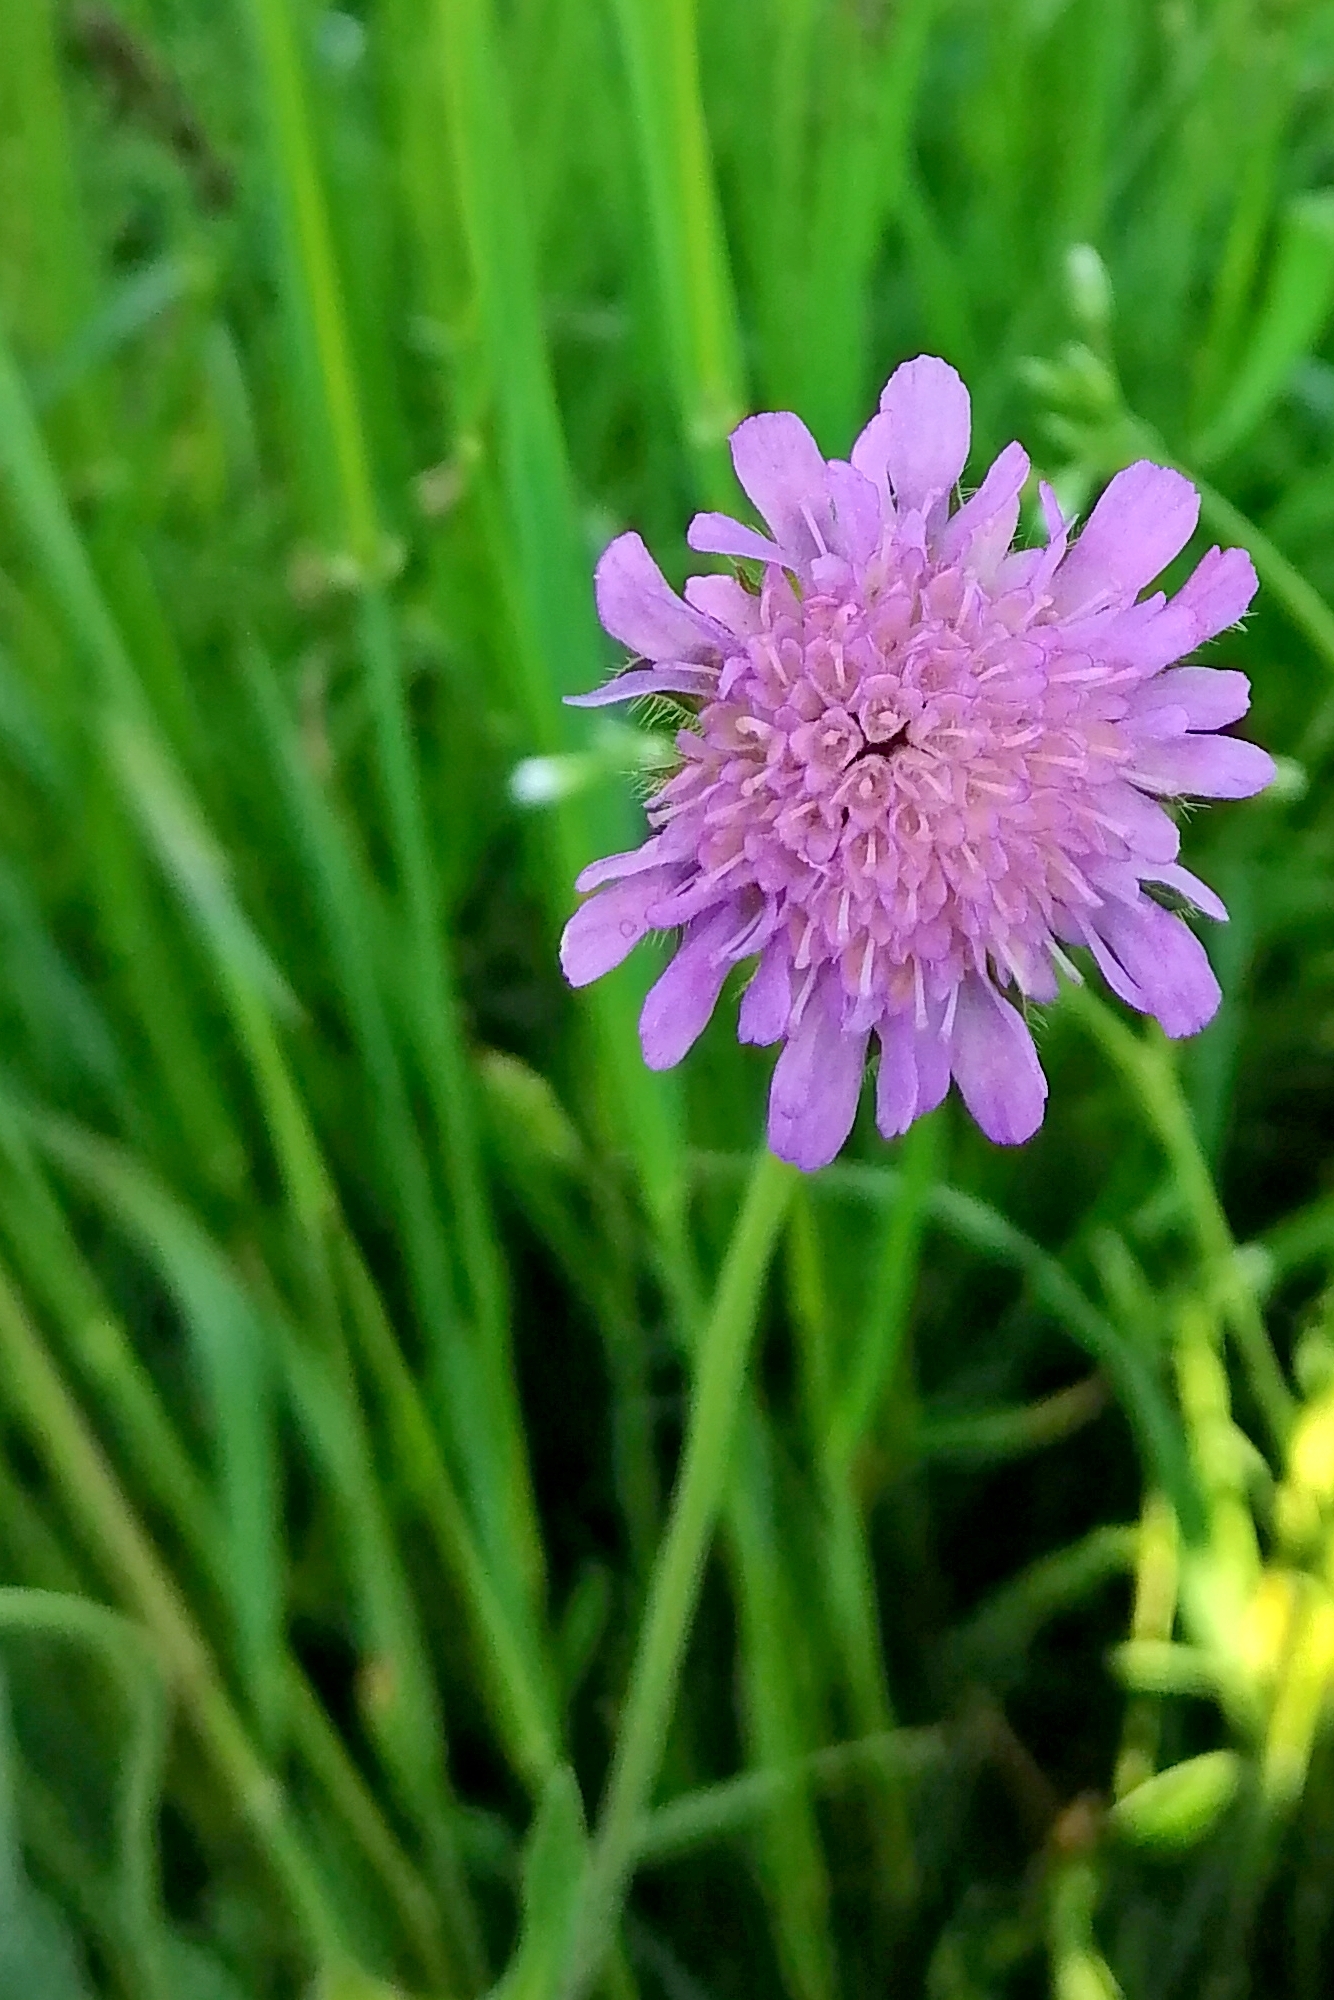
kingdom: Plantae
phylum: Tracheophyta
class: Magnoliopsida
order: Dipsacales
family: Caprifoliaceae
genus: Knautia
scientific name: Knautia arvensis
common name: Field scabiosa
